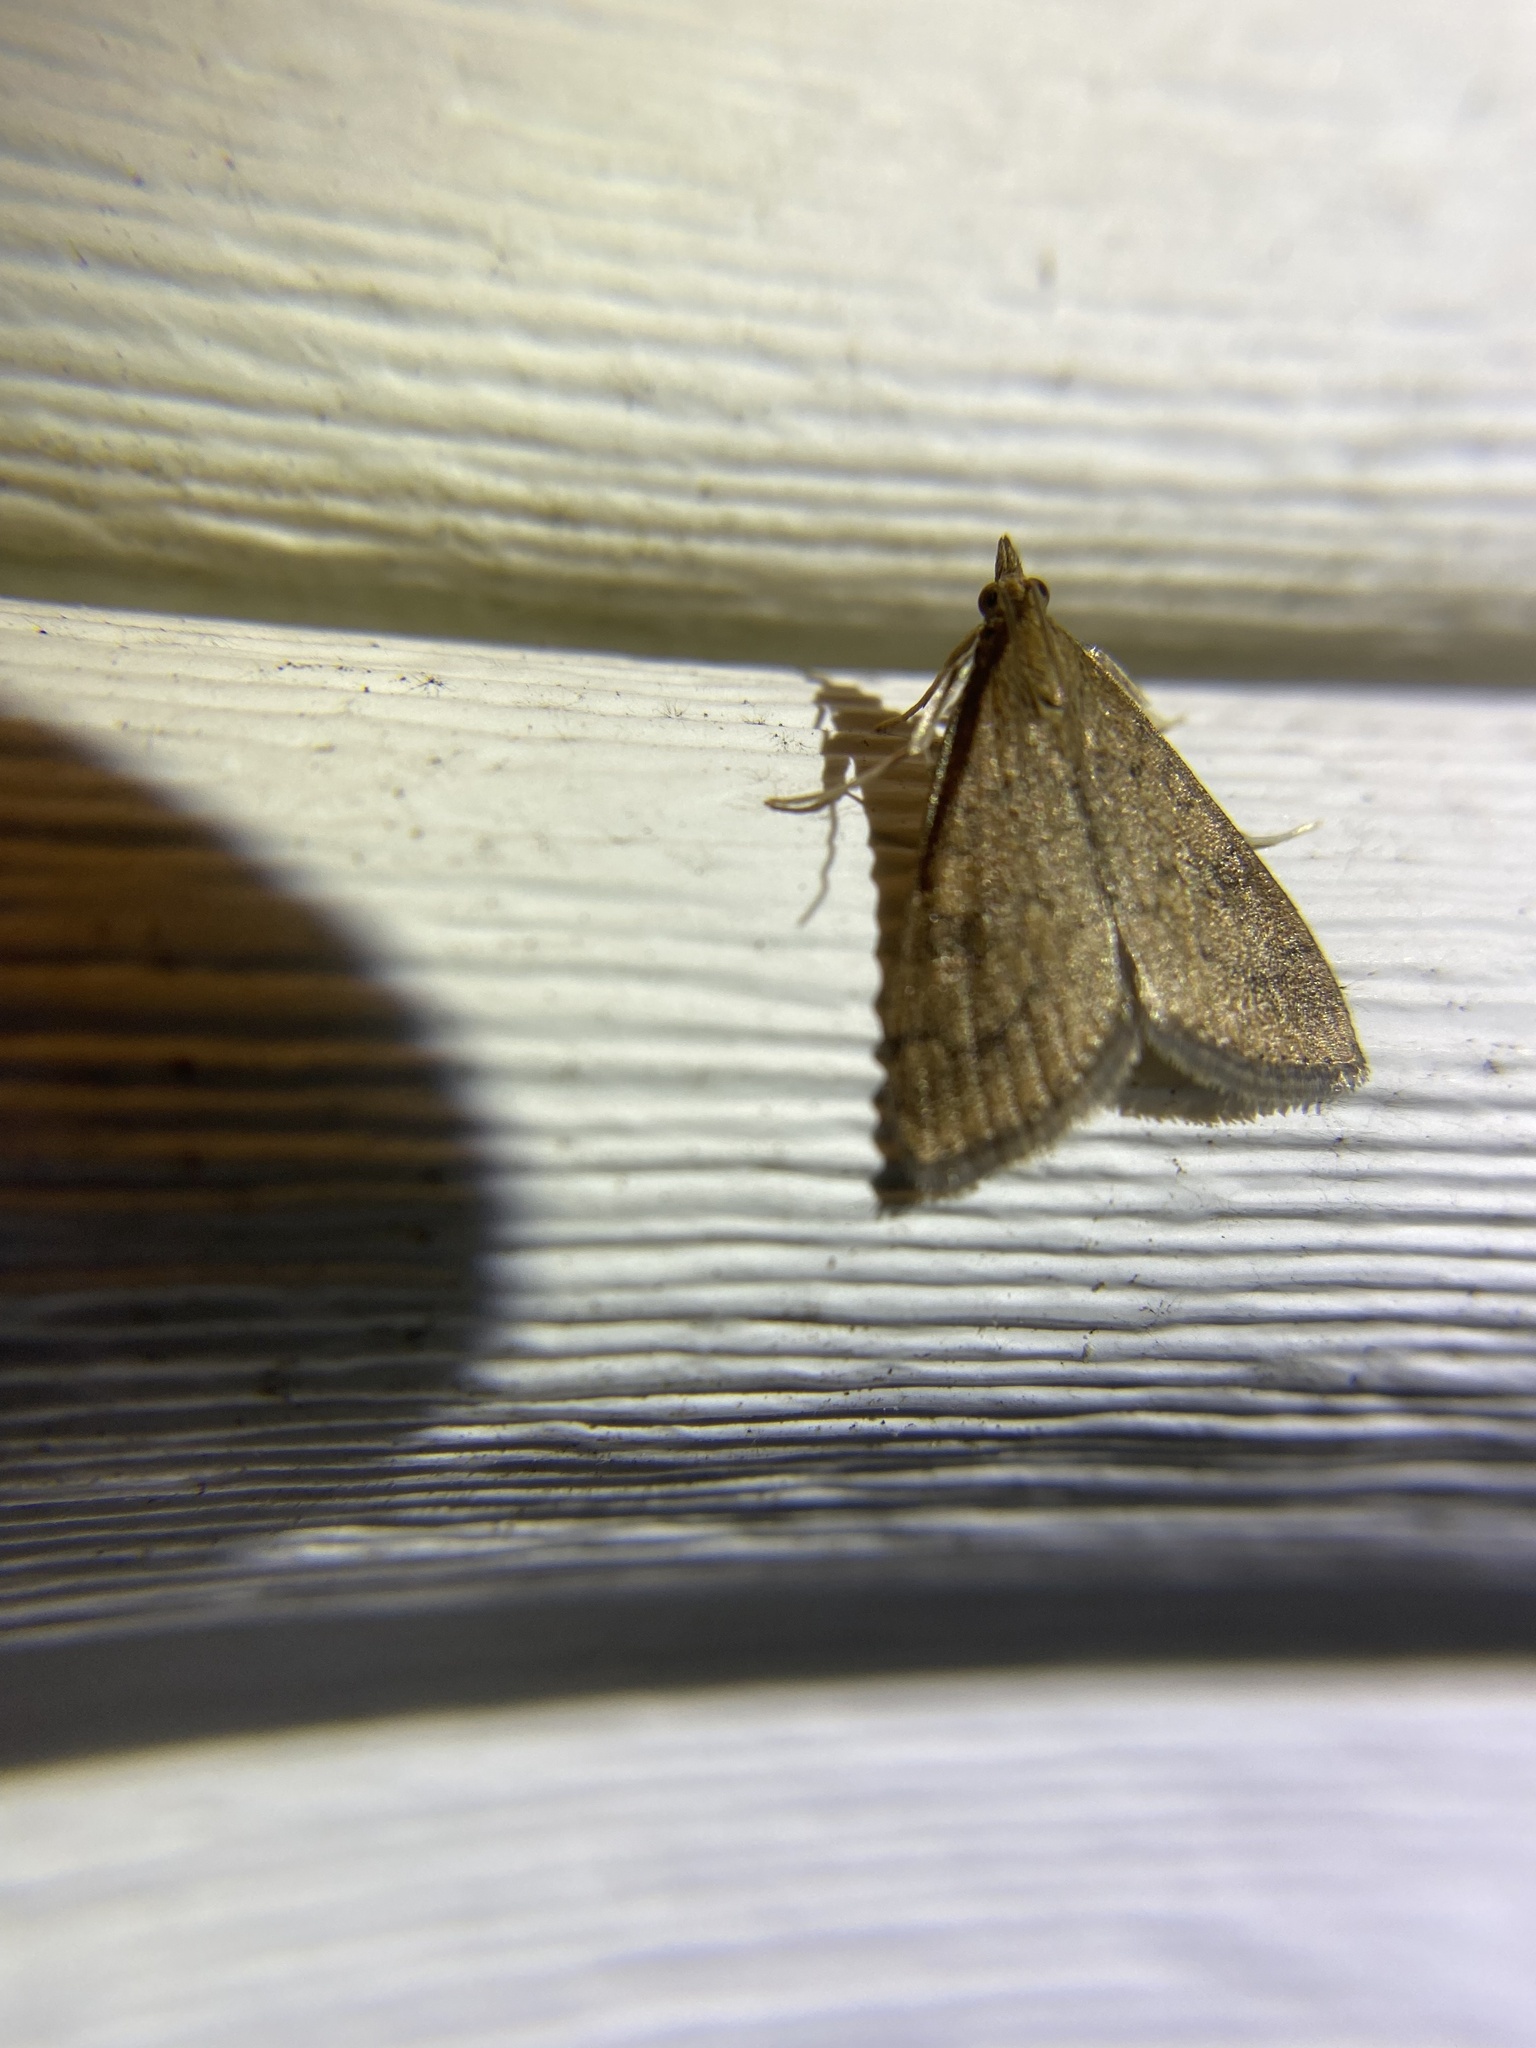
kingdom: Animalia
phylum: Arthropoda
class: Insecta
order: Lepidoptera
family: Crambidae
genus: Udea
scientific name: Udea rubigalis
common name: Celery leaftier moth
